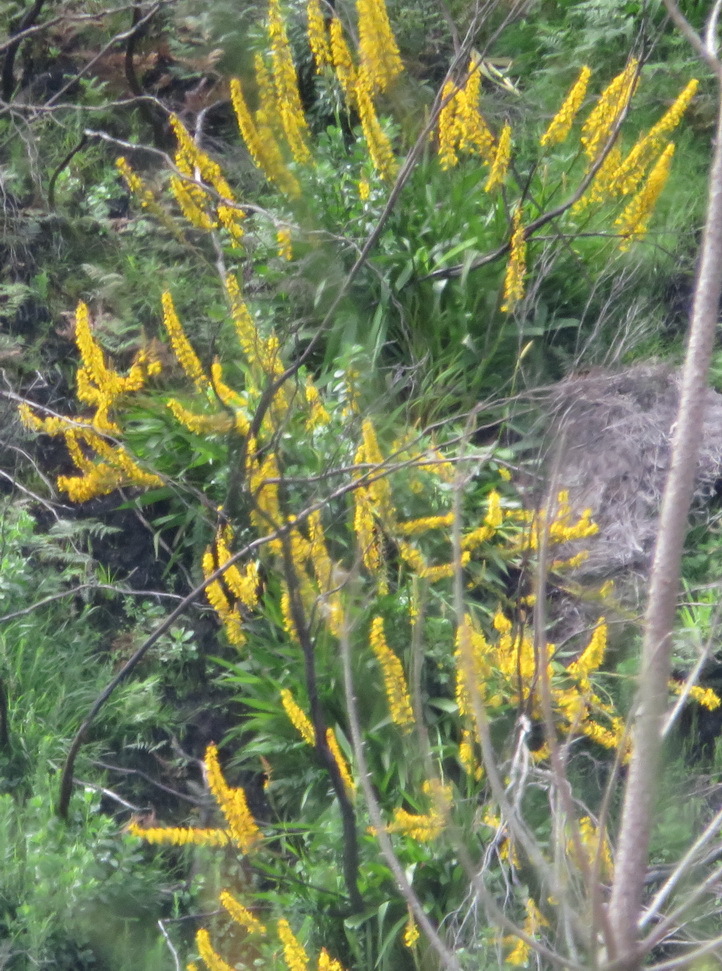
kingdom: Plantae
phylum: Tracheophyta
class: Liliopsida
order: Commelinales
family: Haemodoraceae
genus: Wachendorfia
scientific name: Wachendorfia thyrsiflora
